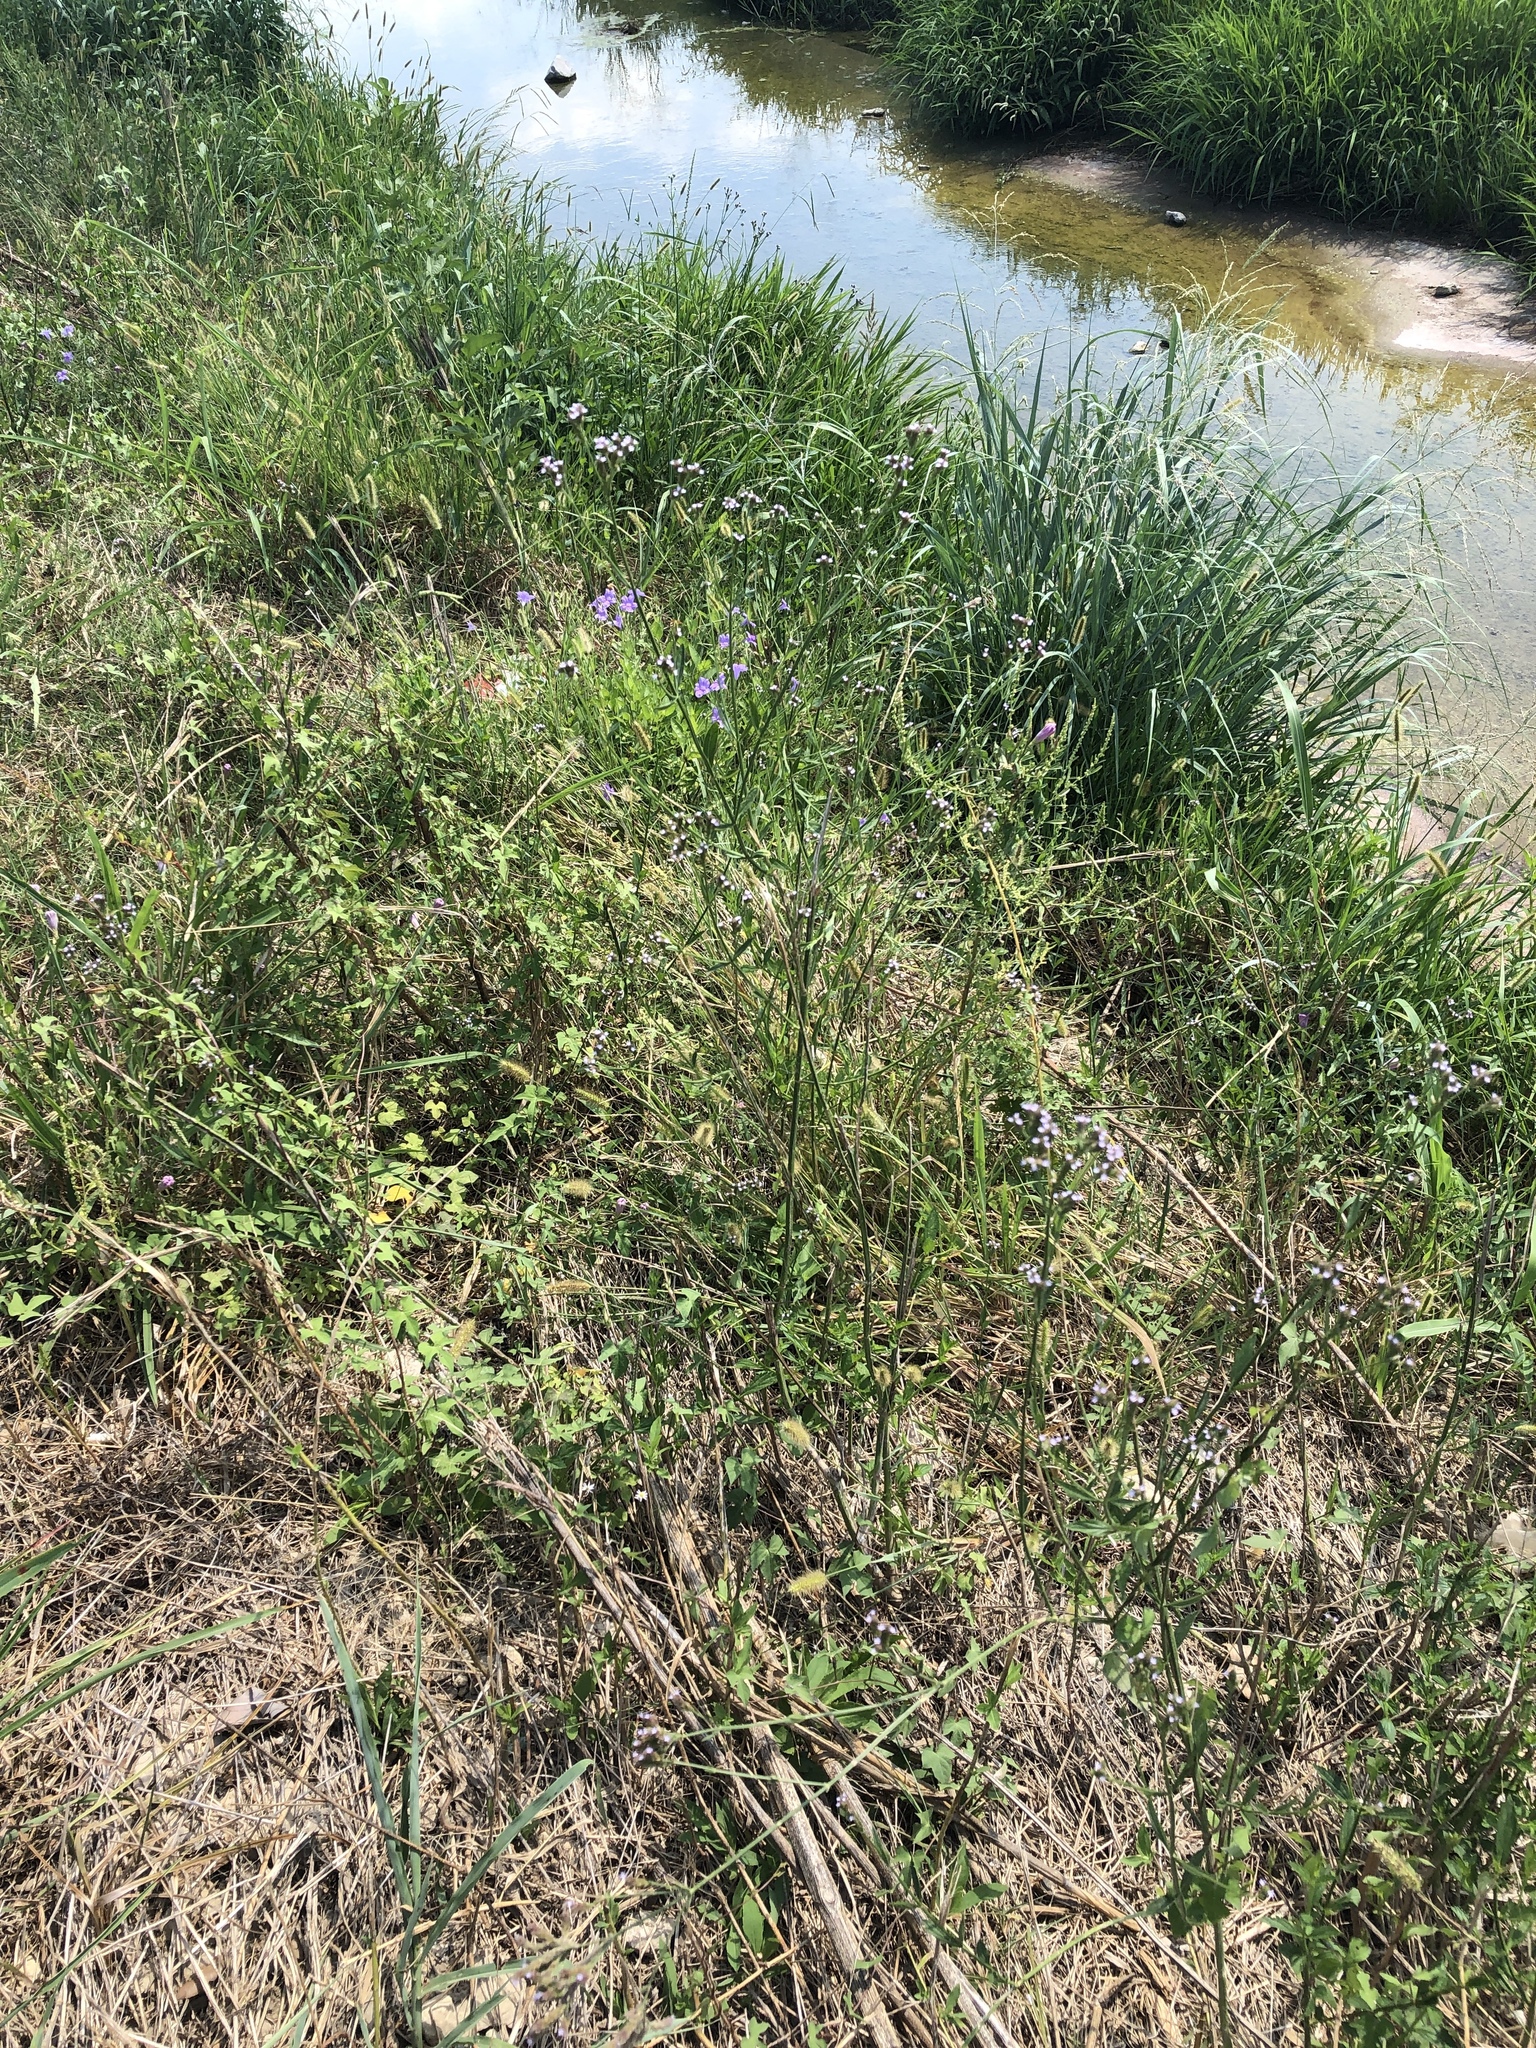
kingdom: Plantae
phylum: Tracheophyta
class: Magnoliopsida
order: Lamiales
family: Verbenaceae
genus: Verbena
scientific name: Verbena brasiliensis
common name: Brazilian vervain
